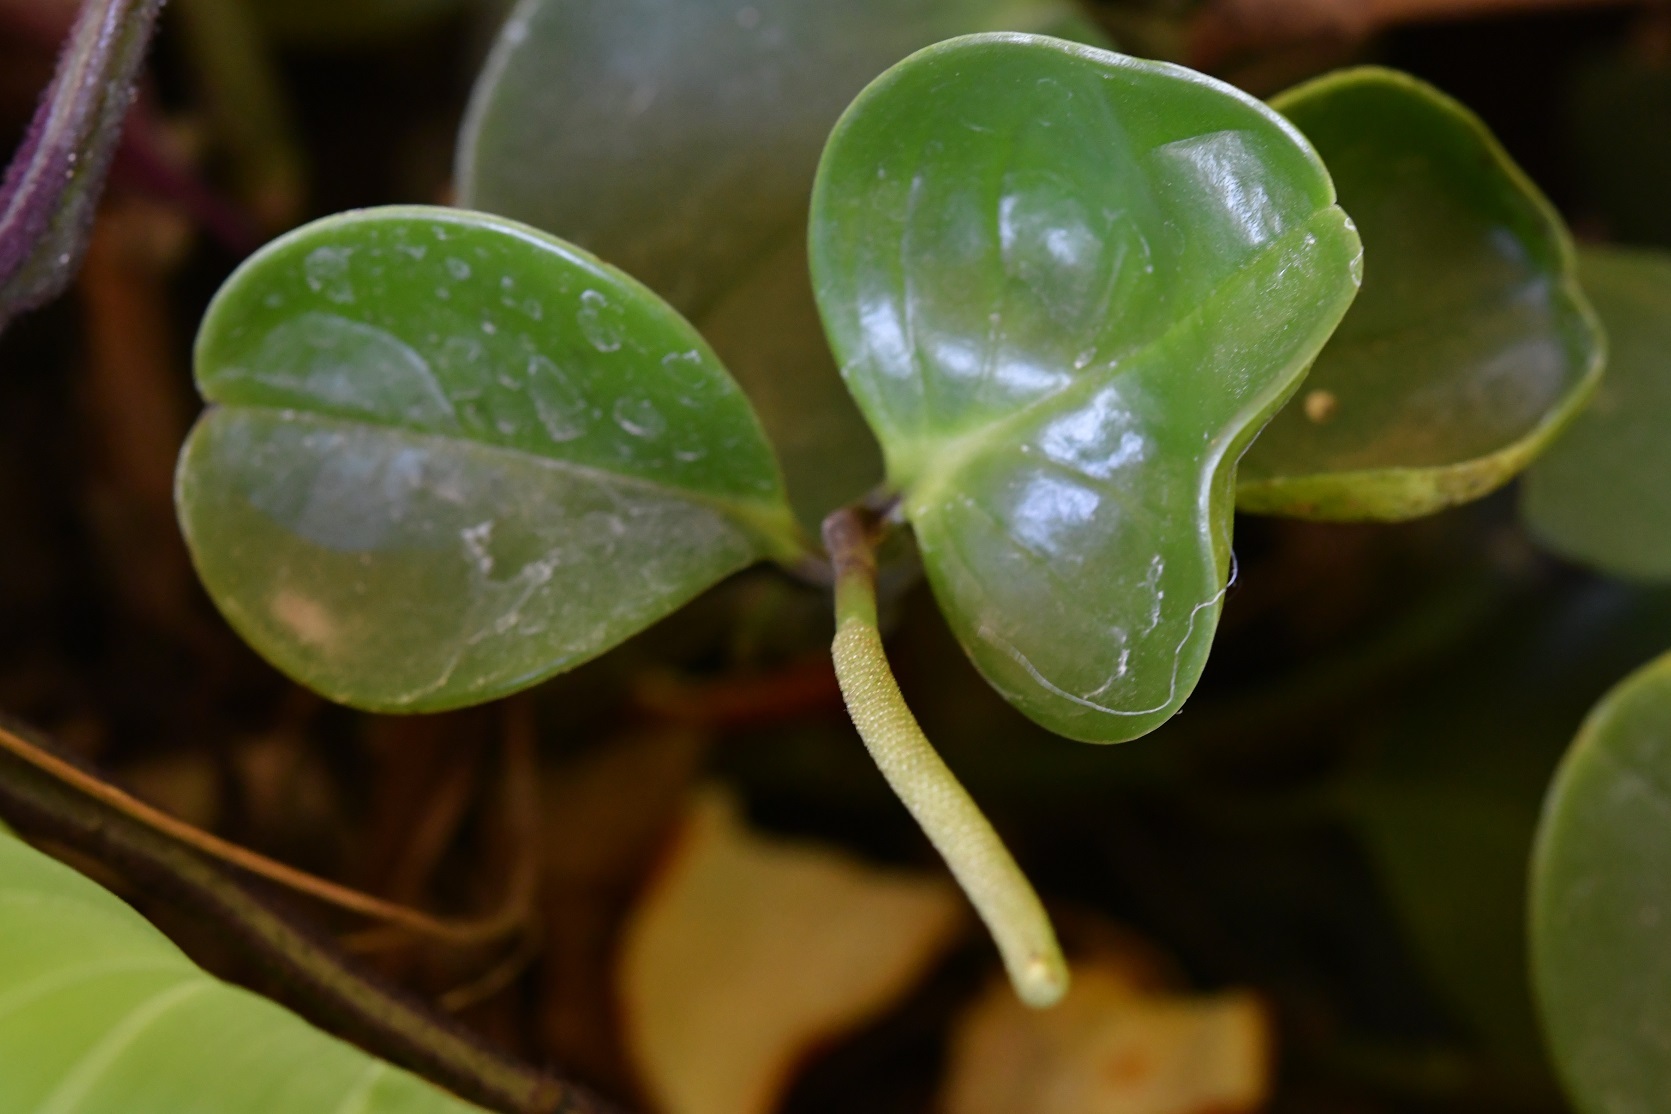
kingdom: Plantae
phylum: Tracheophyta
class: Magnoliopsida
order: Piperales
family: Piperaceae
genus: Peperomia
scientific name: Peperomia magnoliifolia
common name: Spoonleaf peperomia
